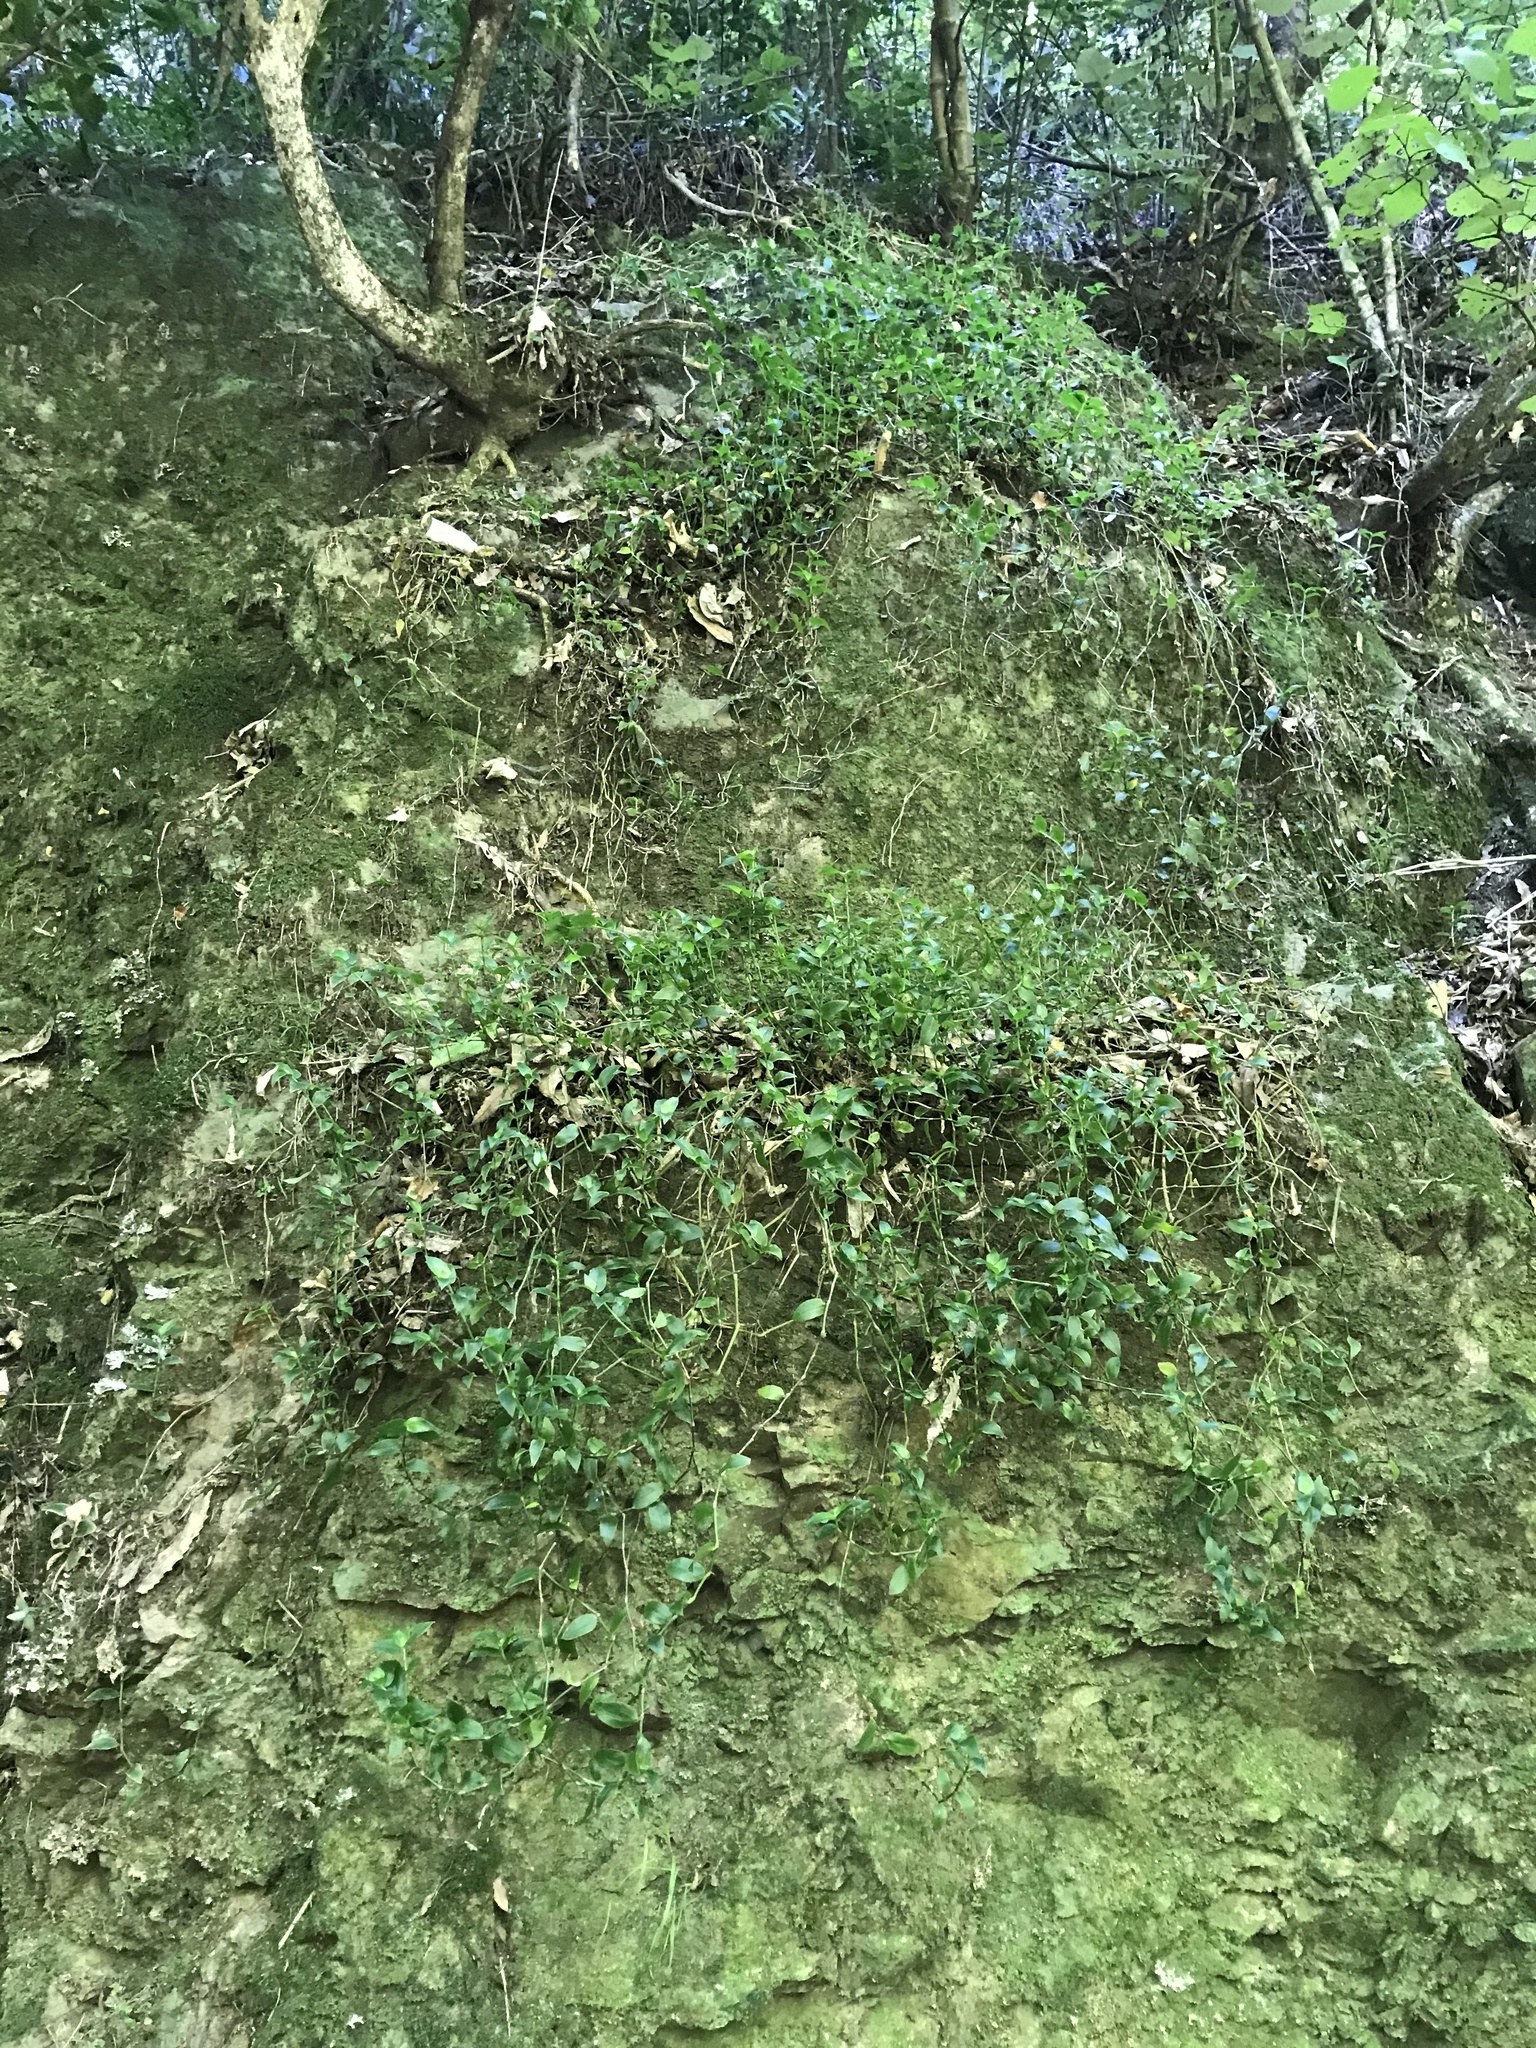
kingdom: Plantae
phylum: Tracheophyta
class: Liliopsida
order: Commelinales
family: Commelinaceae
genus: Tradescantia
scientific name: Tradescantia fluminensis
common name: Wandering-jew
